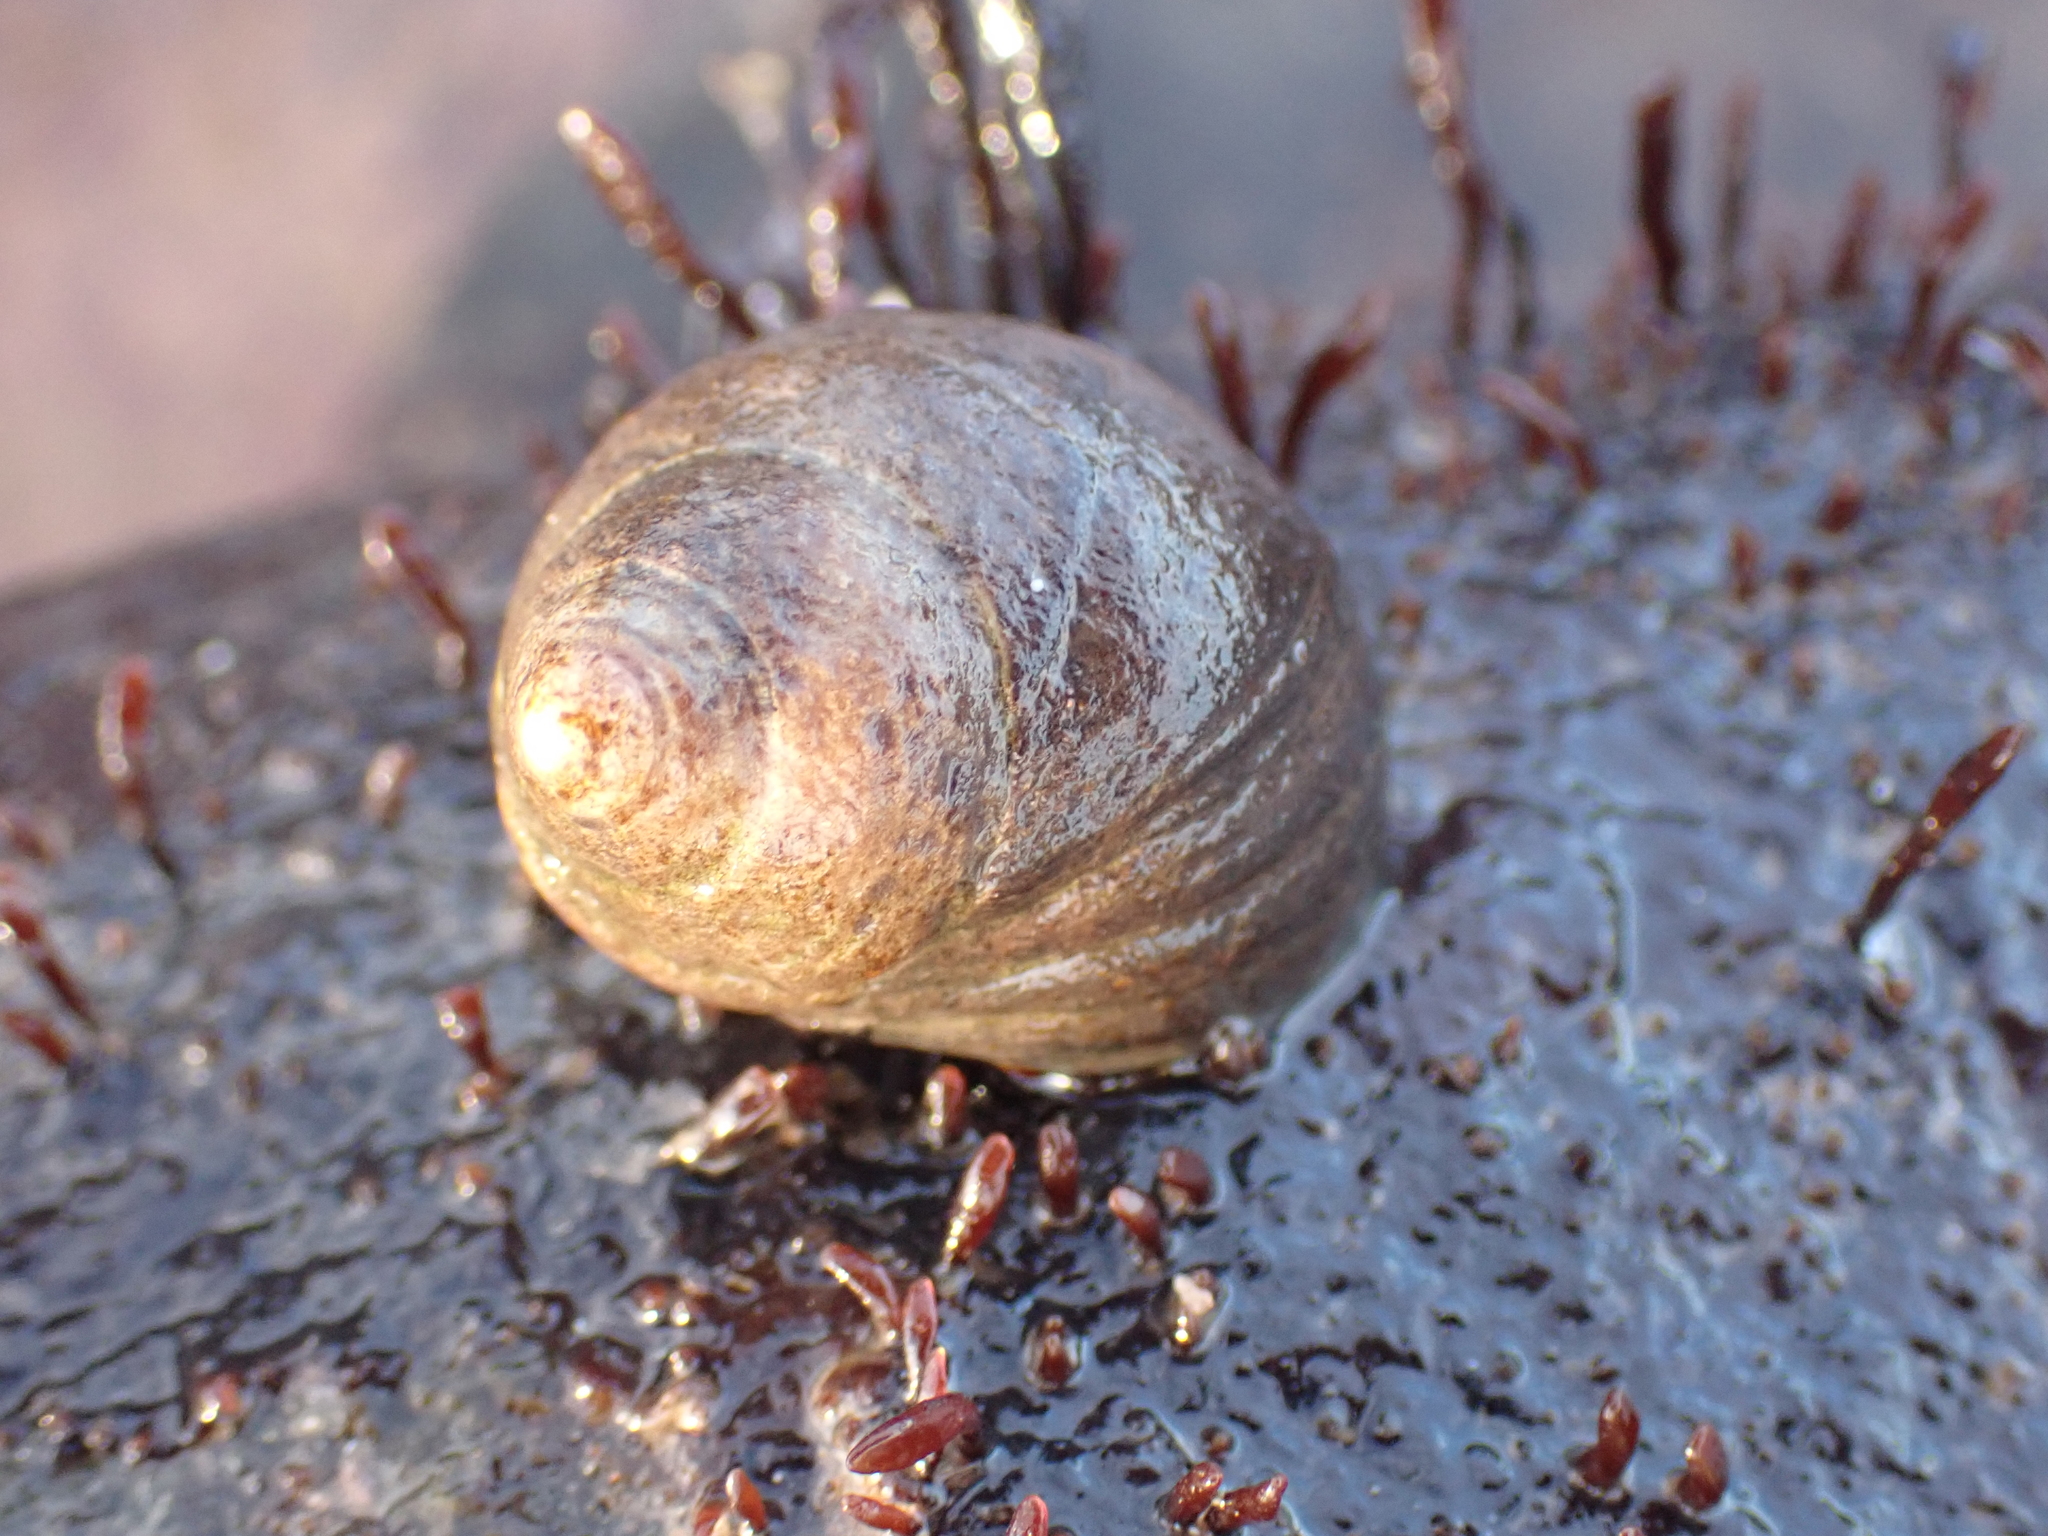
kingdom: Animalia
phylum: Mollusca
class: Gastropoda
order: Littorinimorpha
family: Littorinidae
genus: Littorina
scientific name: Littorina littorea
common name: Common periwinkle
